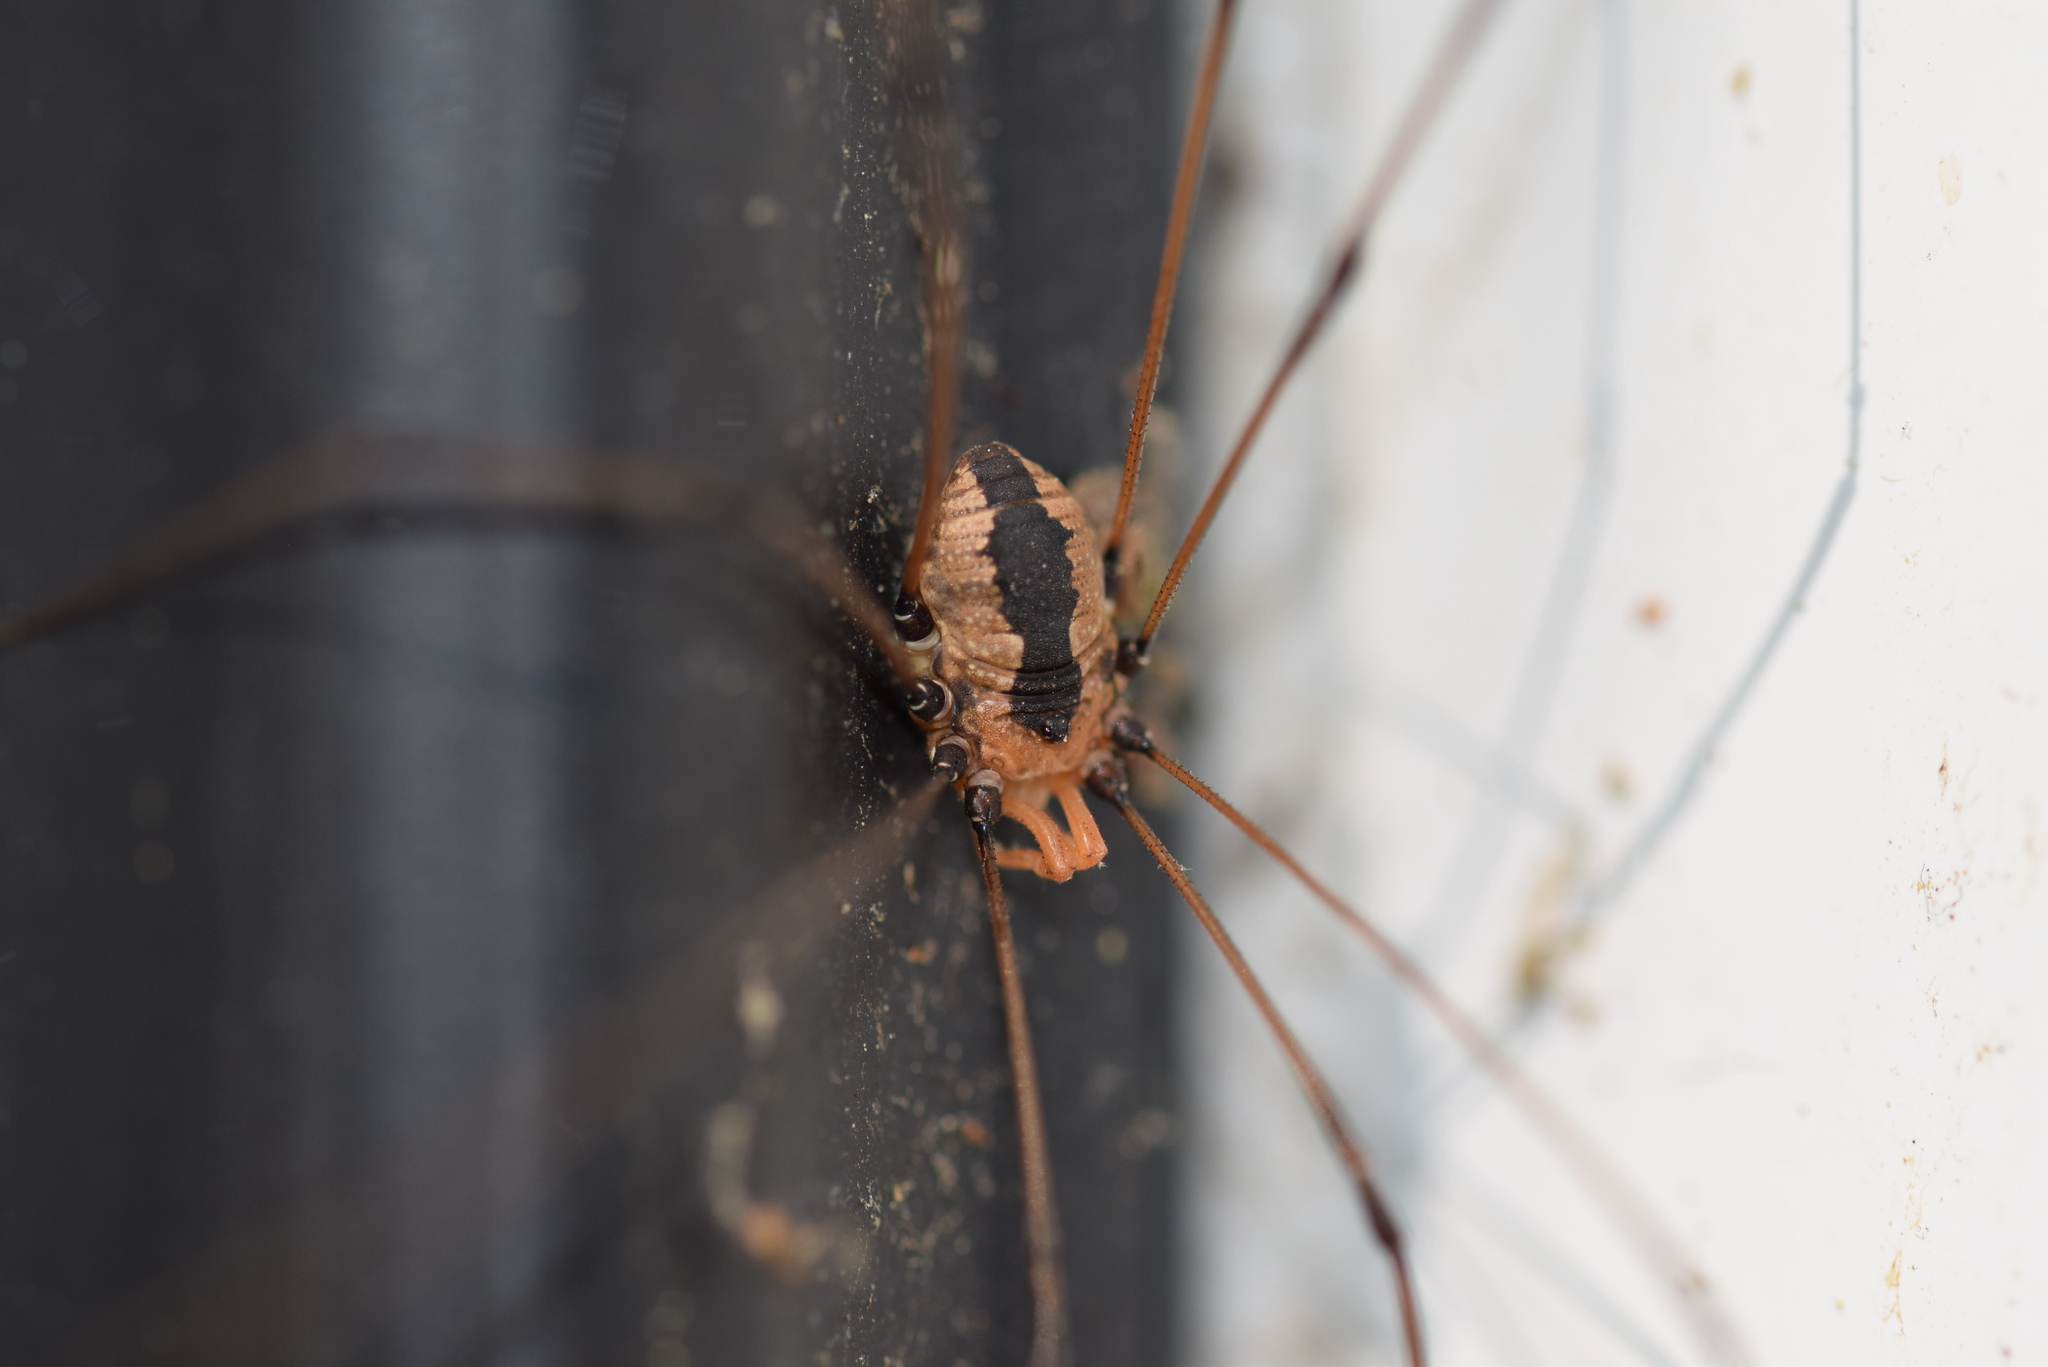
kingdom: Animalia
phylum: Arthropoda
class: Arachnida
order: Opiliones
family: Sclerosomatidae
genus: Leiobunum
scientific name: Leiobunum vittatum
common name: Eastern harvestman
